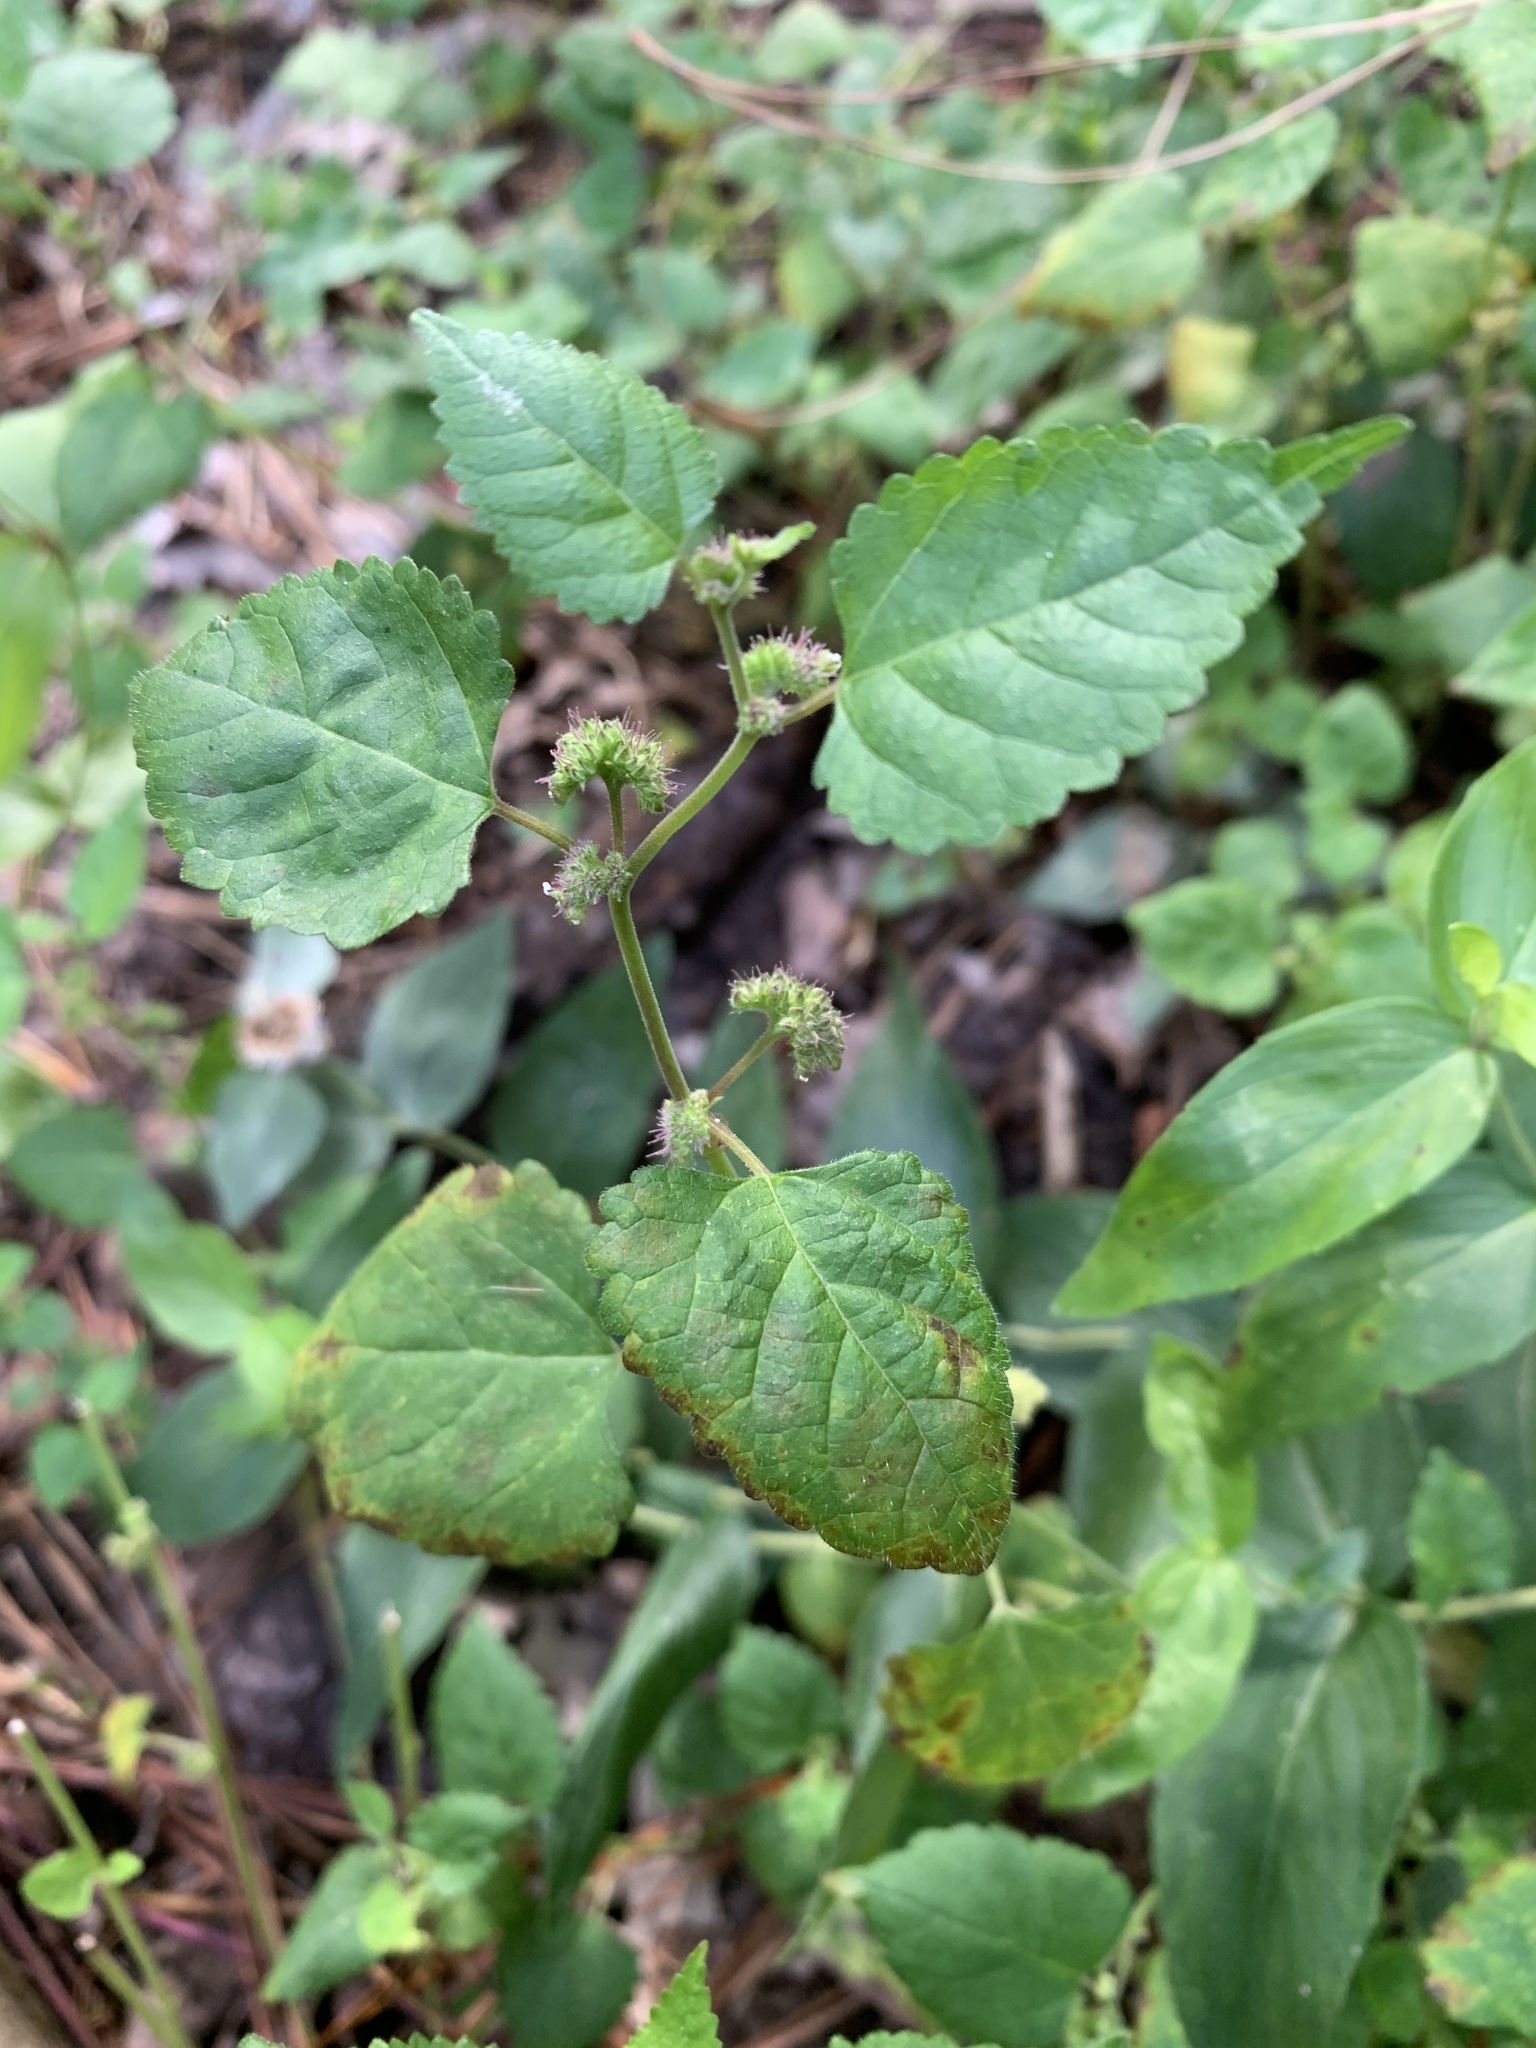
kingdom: Plantae
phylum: Tracheophyta
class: Magnoliopsida
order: Rosales
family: Moraceae
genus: Fatoua
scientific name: Fatoua villosa
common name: Hairy crabweed
